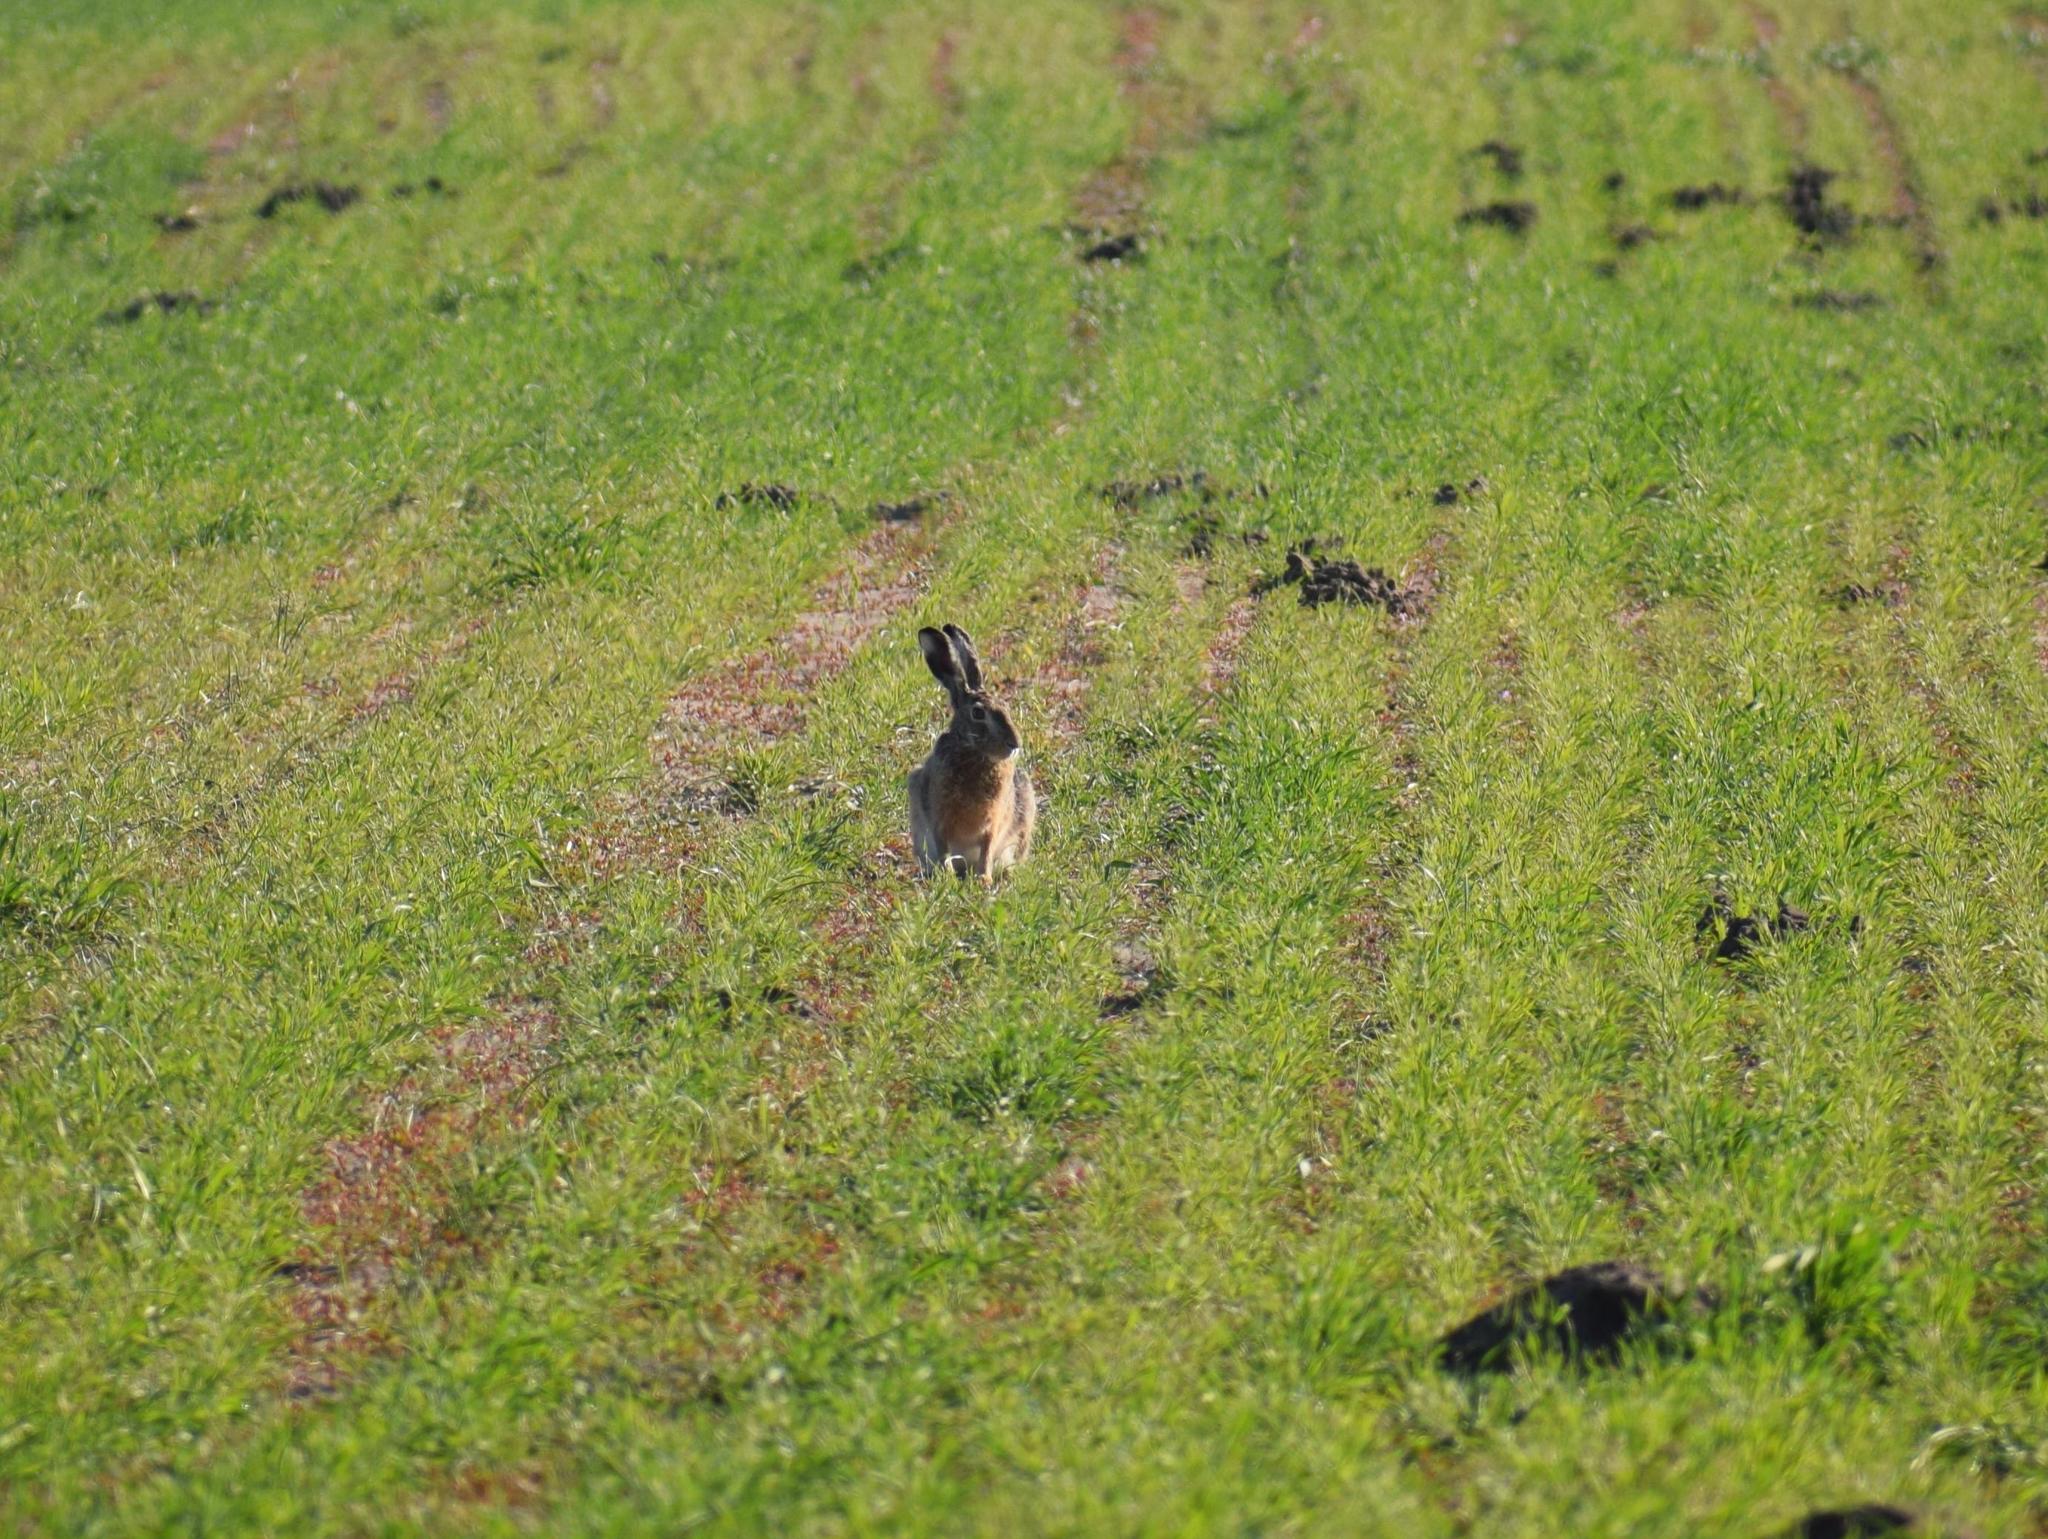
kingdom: Animalia
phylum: Chordata
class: Mammalia
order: Lagomorpha
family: Leporidae
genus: Lepus
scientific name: Lepus europaeus
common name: European hare
